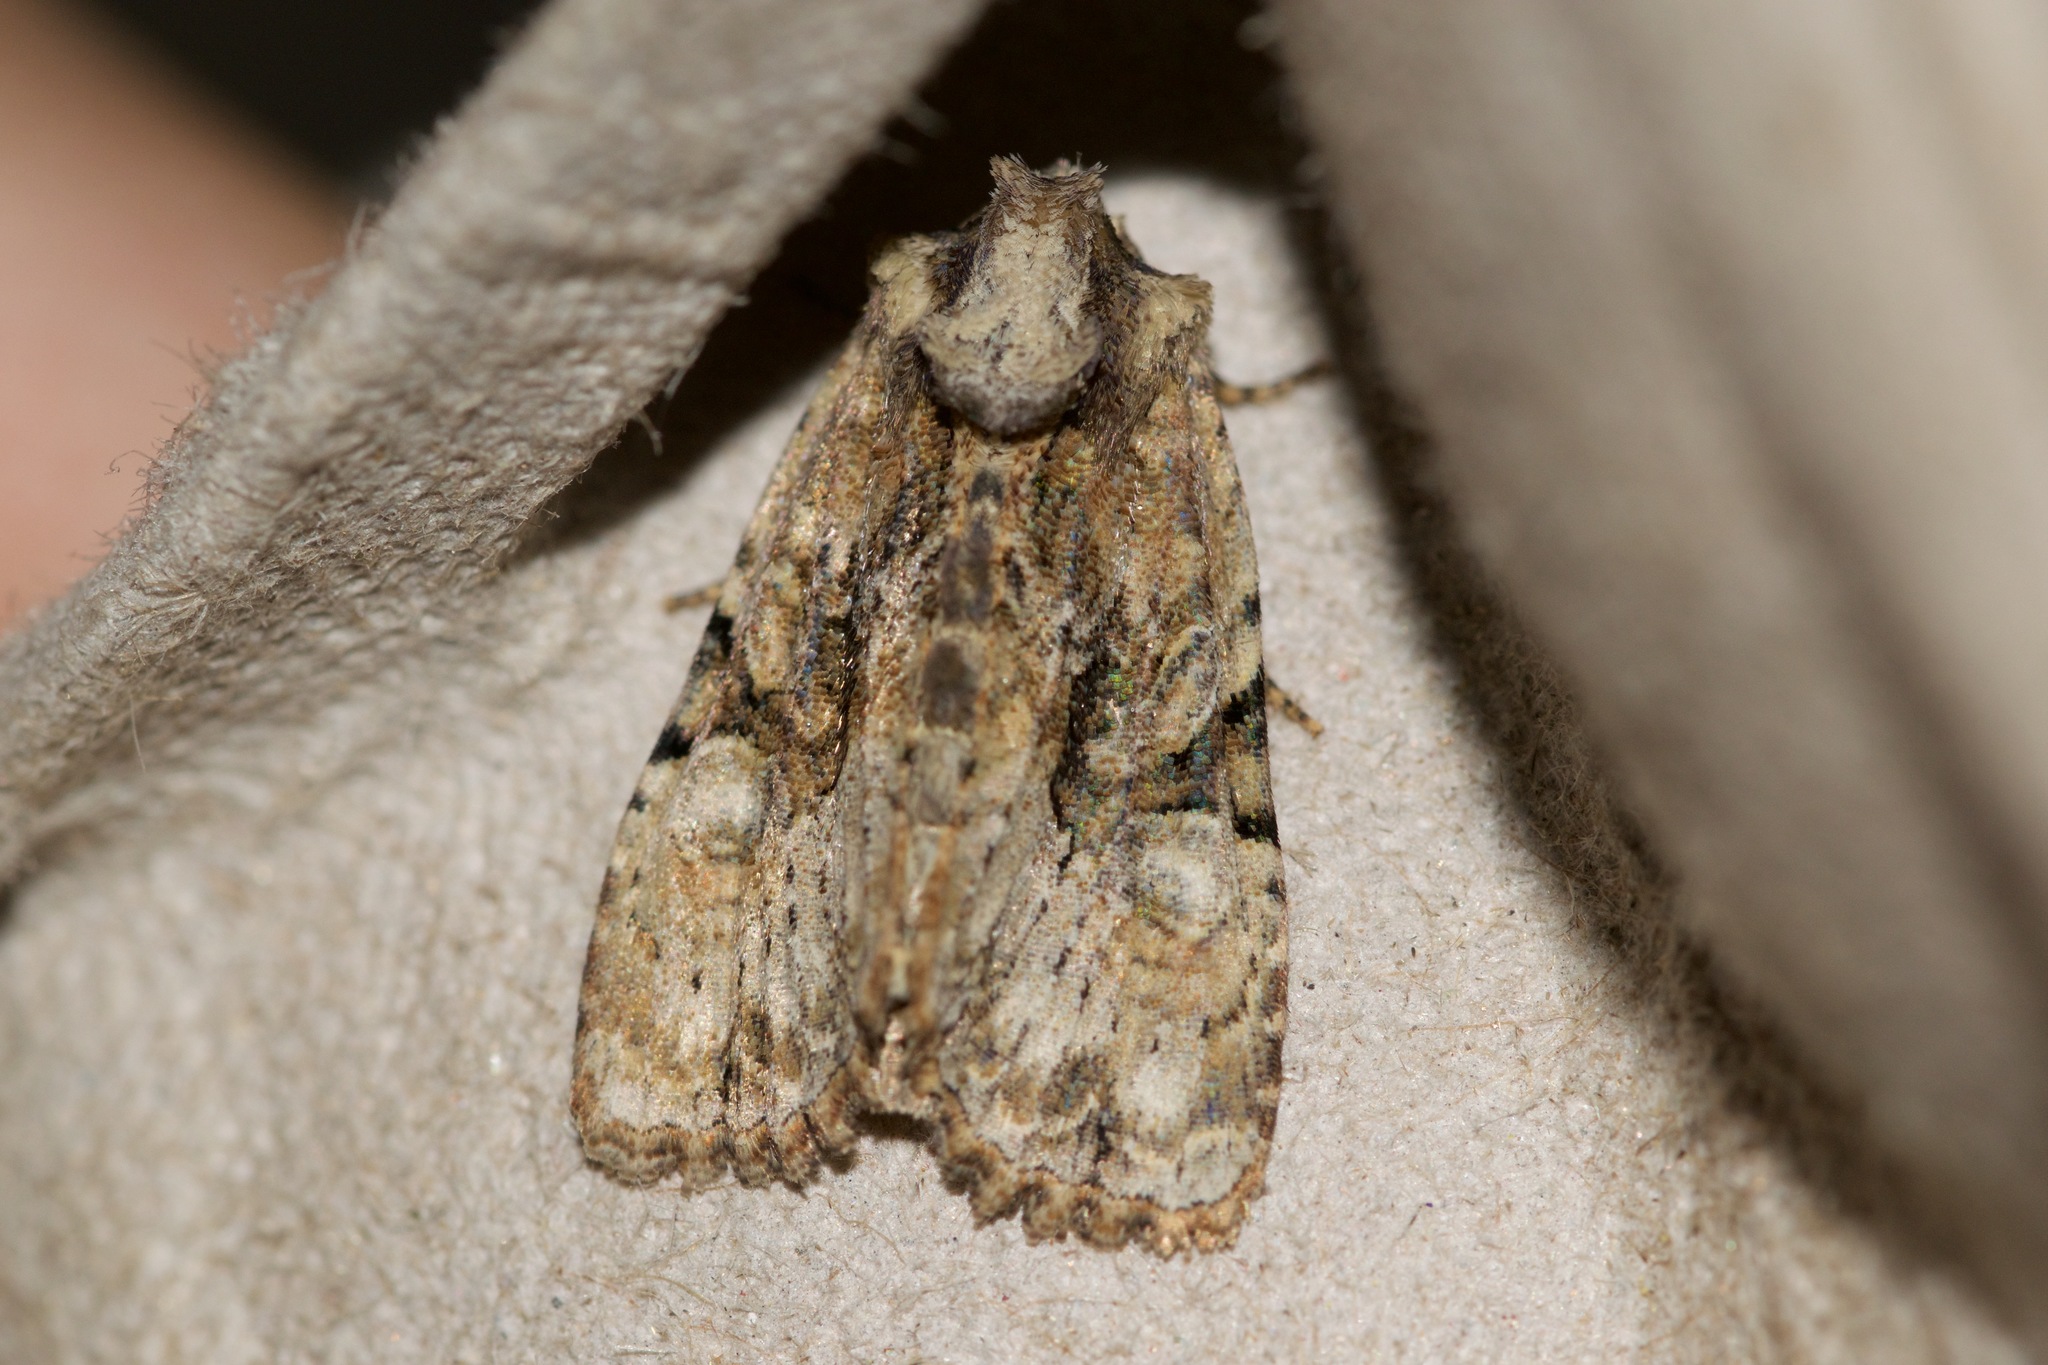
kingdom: Animalia
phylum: Arthropoda
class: Insecta
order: Lepidoptera
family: Noctuidae
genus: Oligia
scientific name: Oligia modica
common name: Black-banded brocade
